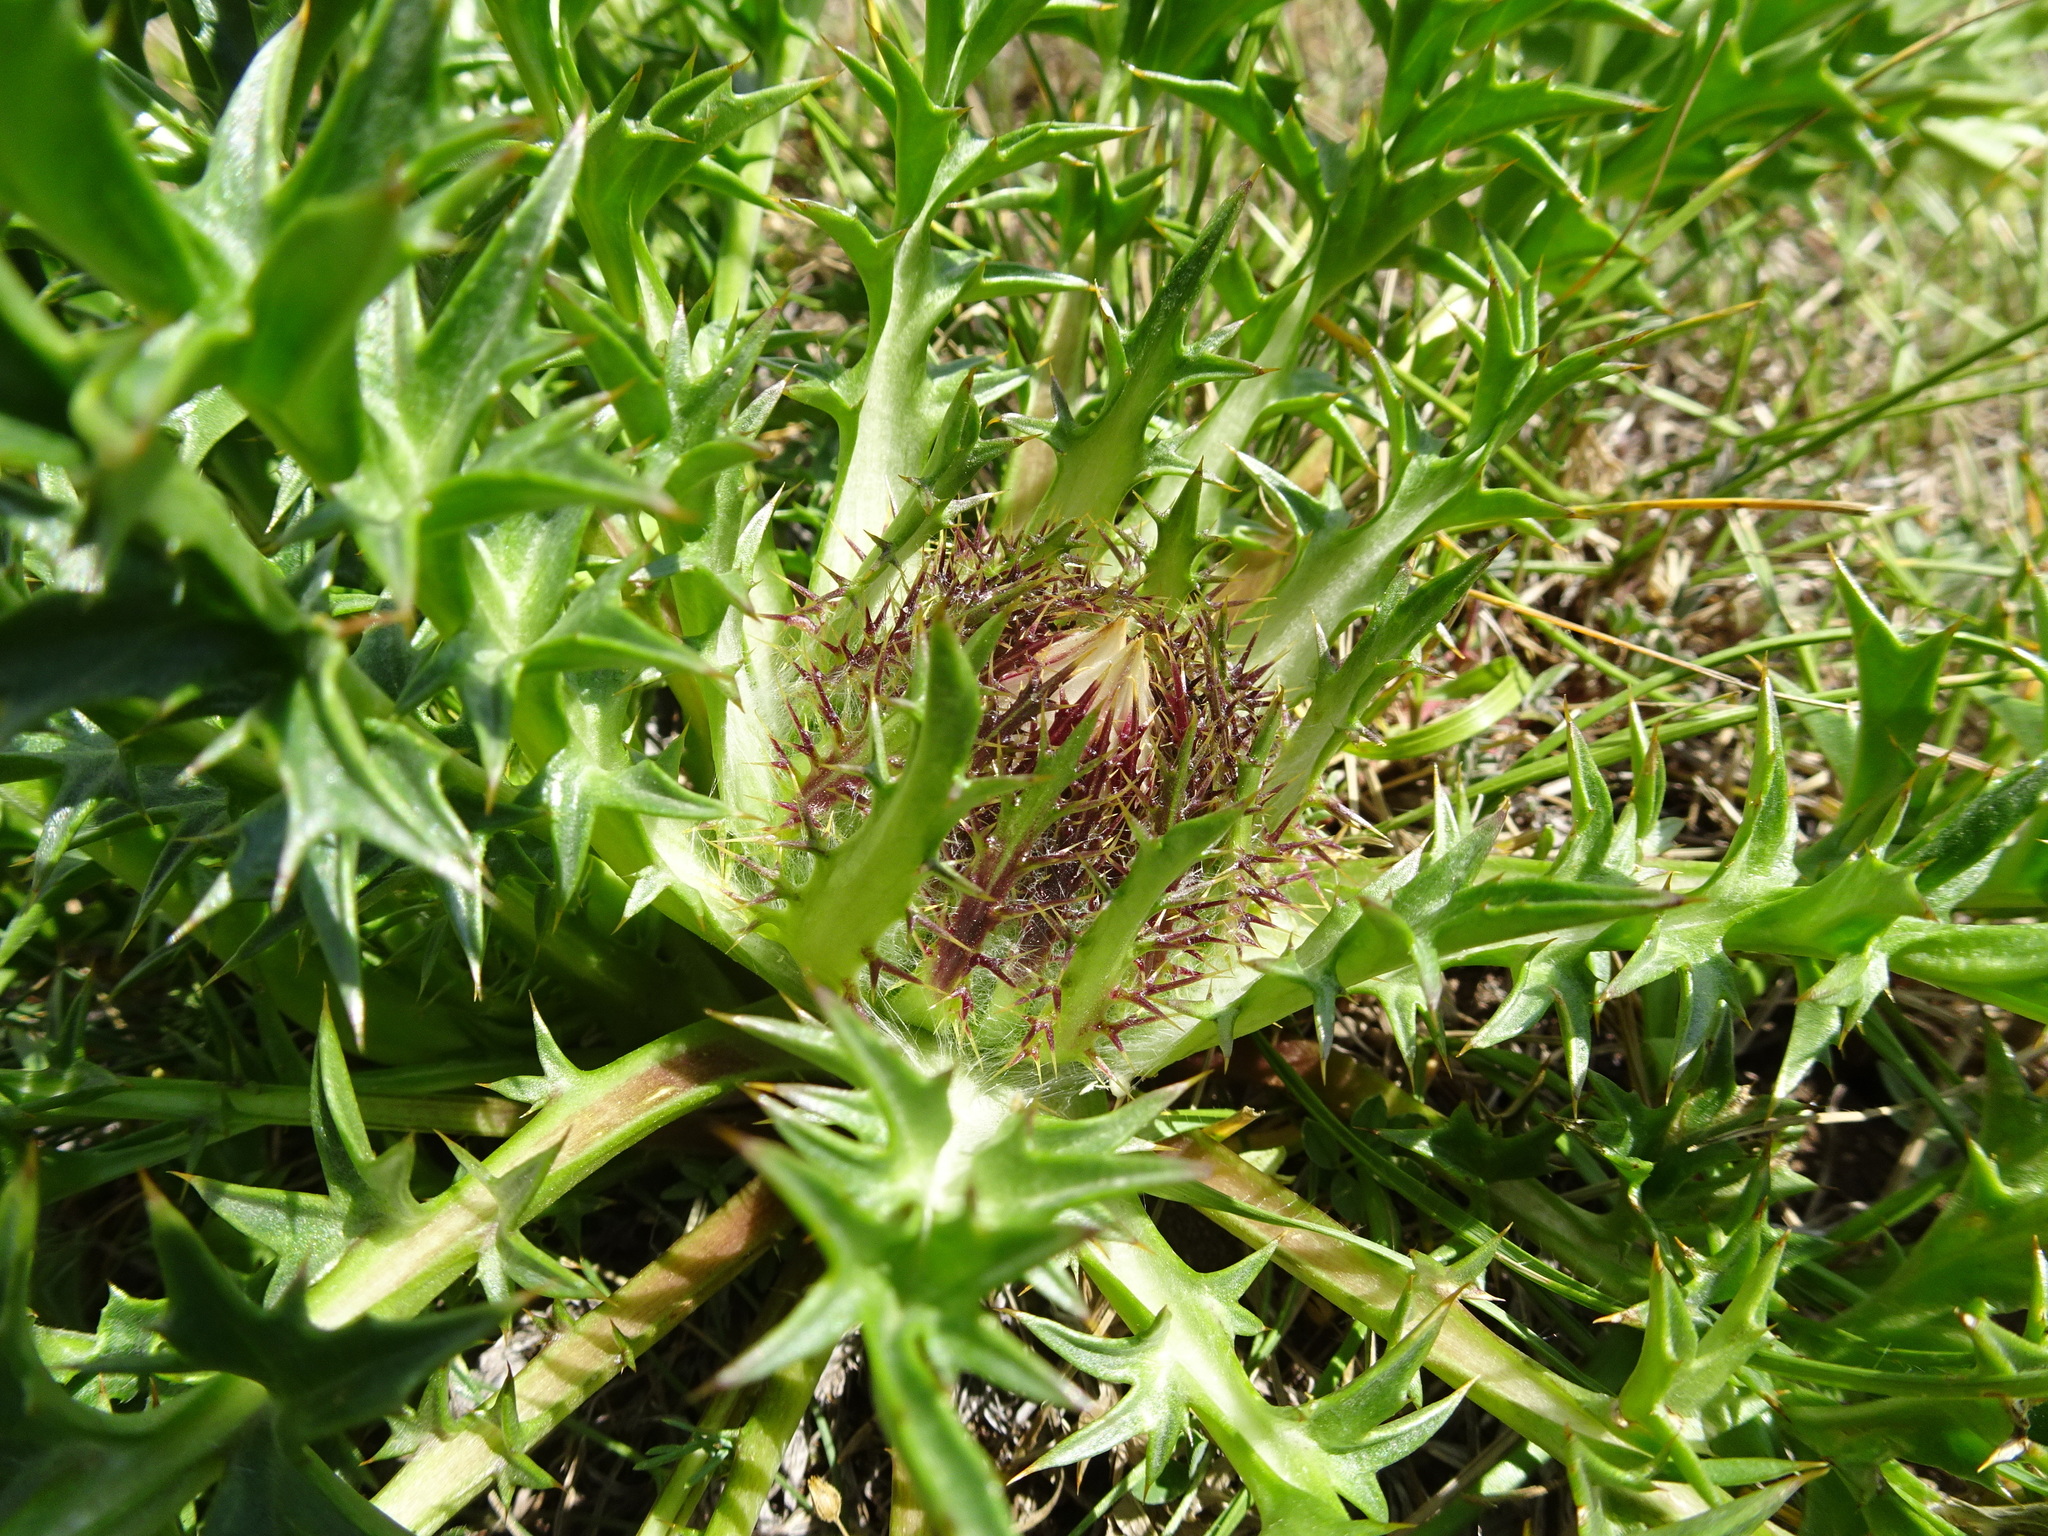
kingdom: Plantae
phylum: Tracheophyta
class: Magnoliopsida
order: Asterales
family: Asteraceae
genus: Carlina
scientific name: Carlina acaulis
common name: Stemless carline thistle
